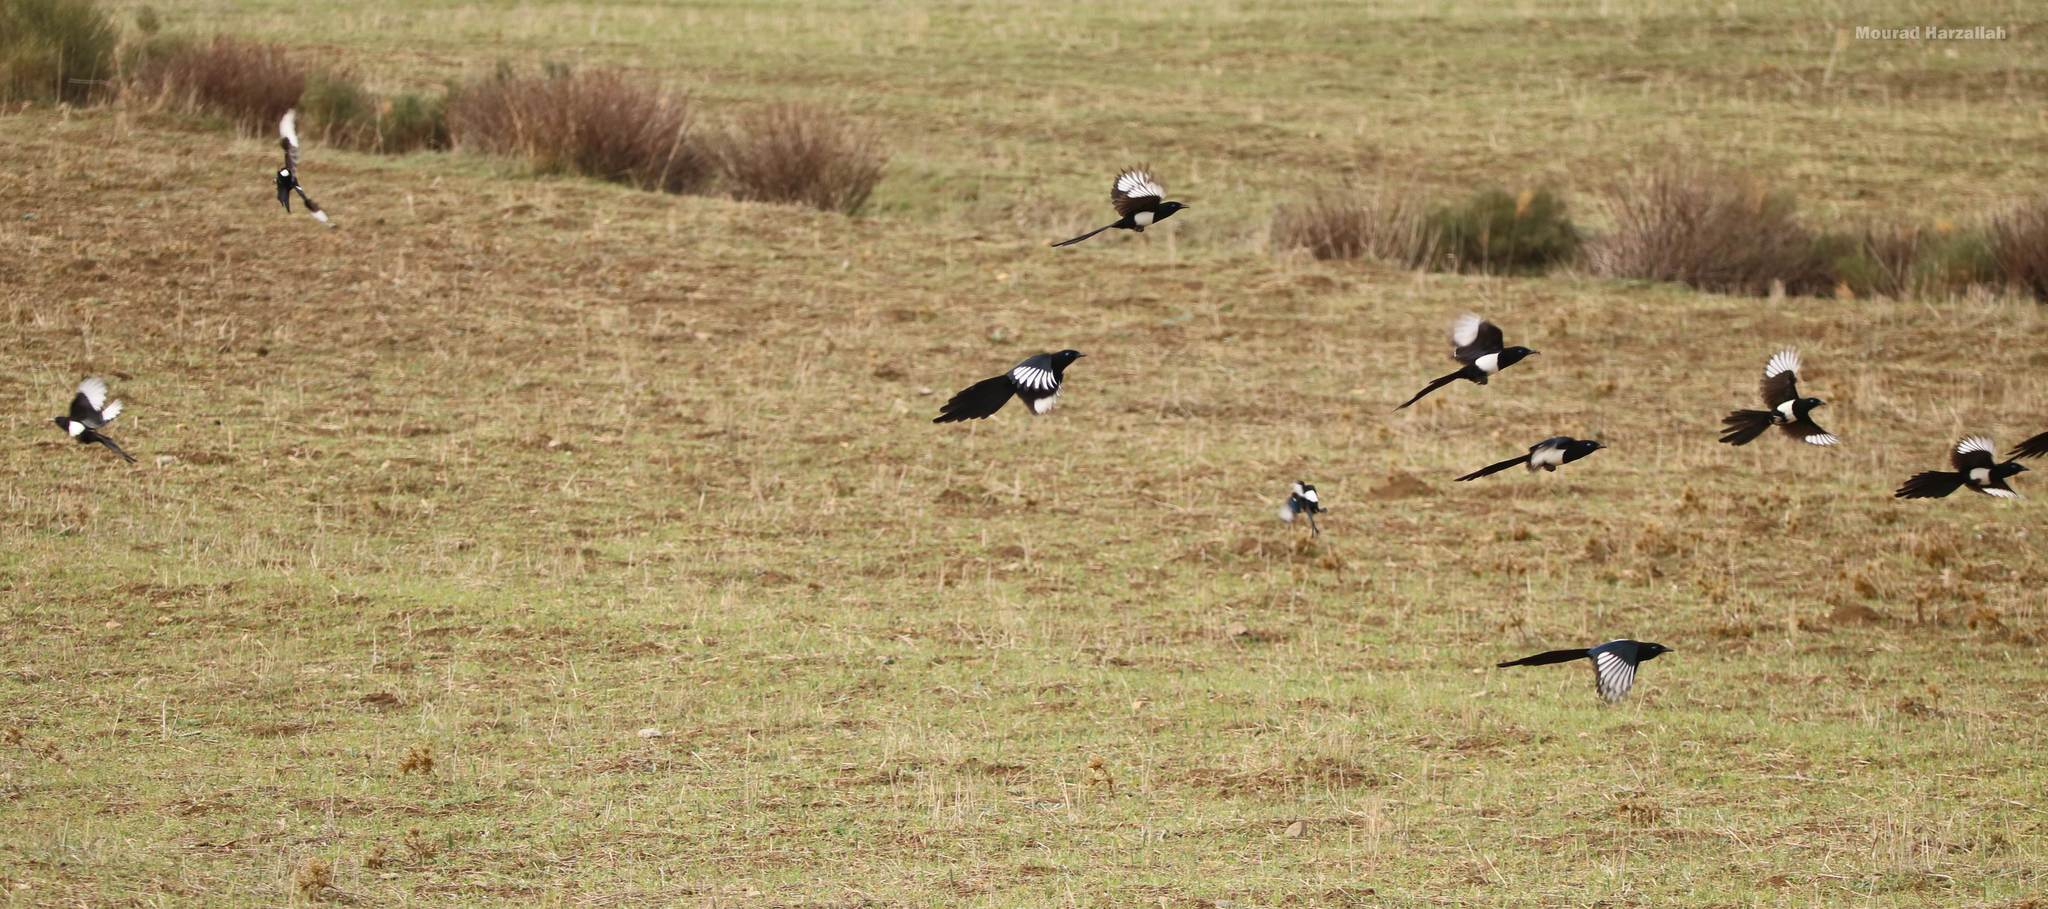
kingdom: Animalia
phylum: Chordata
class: Aves
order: Passeriformes
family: Corvidae
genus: Pica
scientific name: Pica mauritanica
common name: Maghreb magpie
